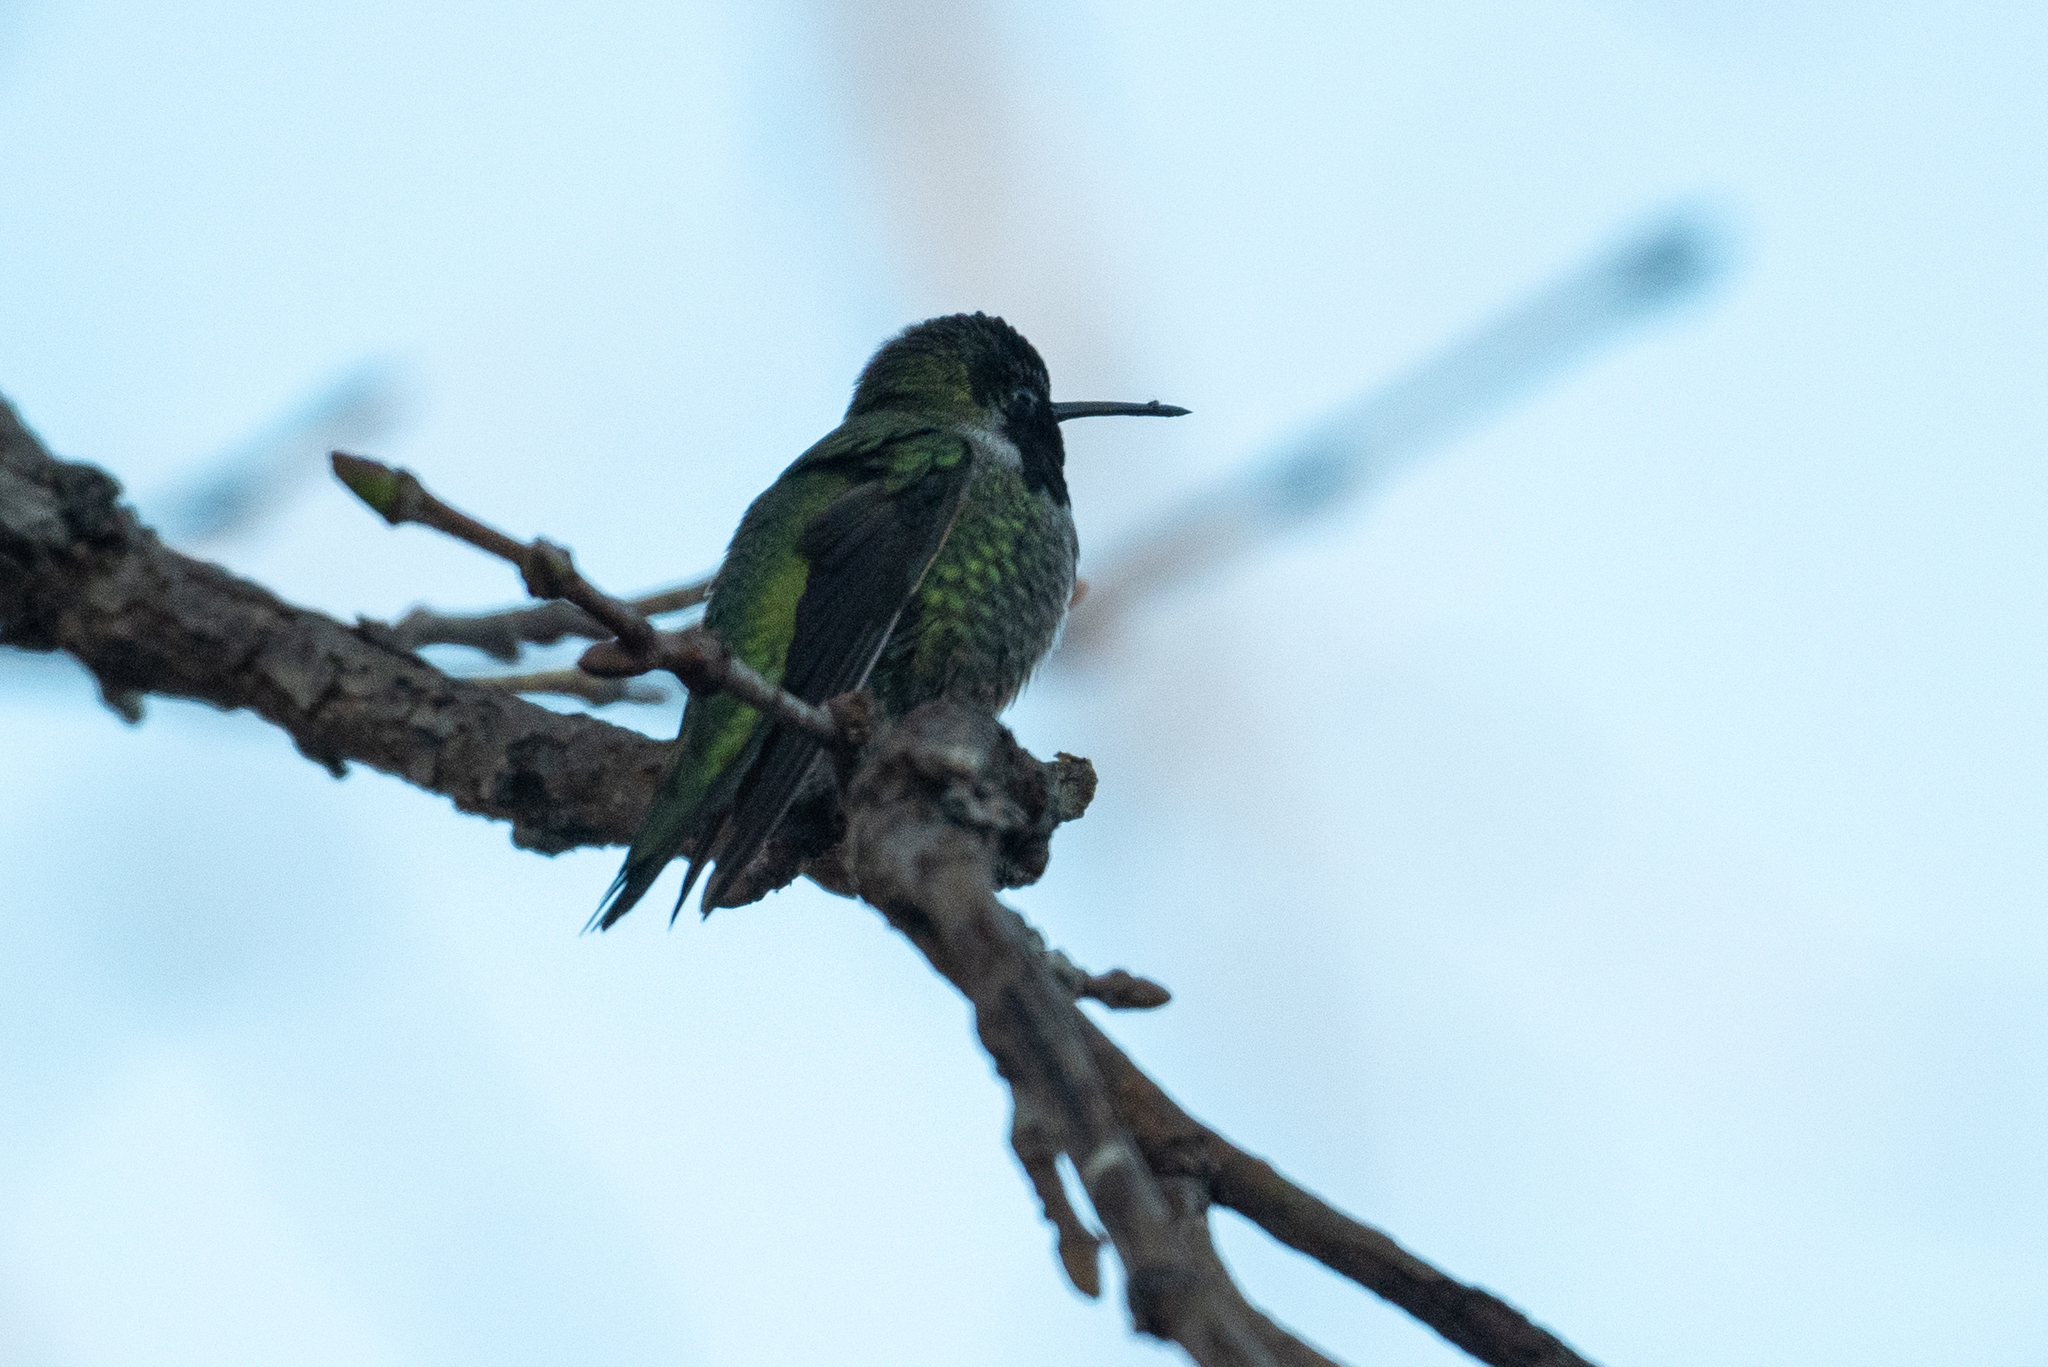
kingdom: Animalia
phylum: Chordata
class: Aves
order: Apodiformes
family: Trochilidae
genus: Calypte
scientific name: Calypte anna
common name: Anna's hummingbird
